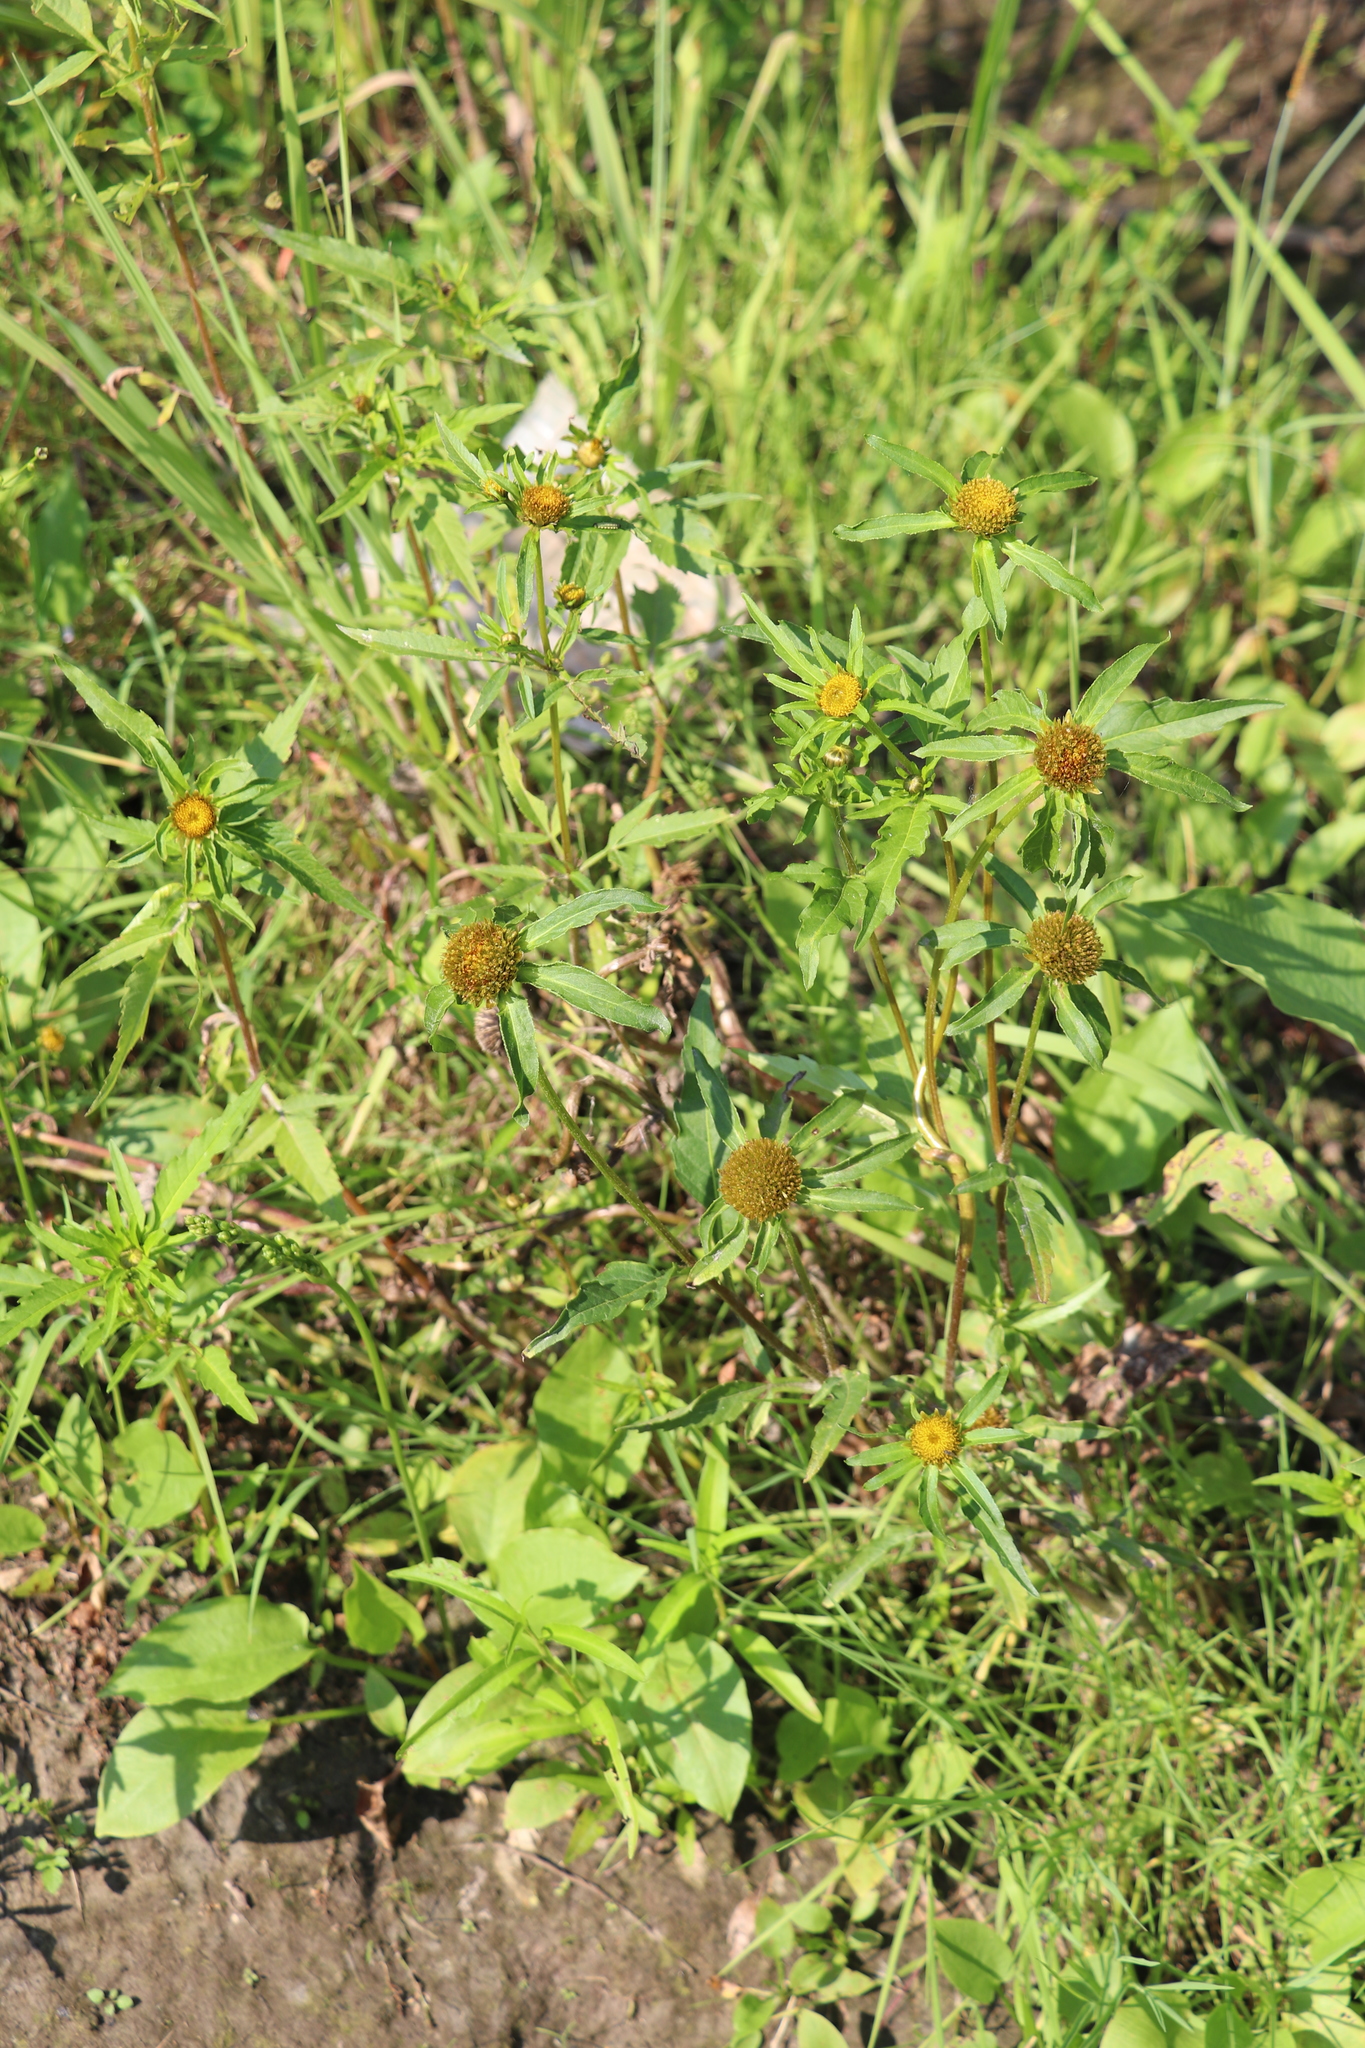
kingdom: Plantae
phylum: Tracheophyta
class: Magnoliopsida
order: Asterales
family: Asteraceae
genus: Bidens
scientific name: Bidens radiata
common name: Radiating bur-marigold
